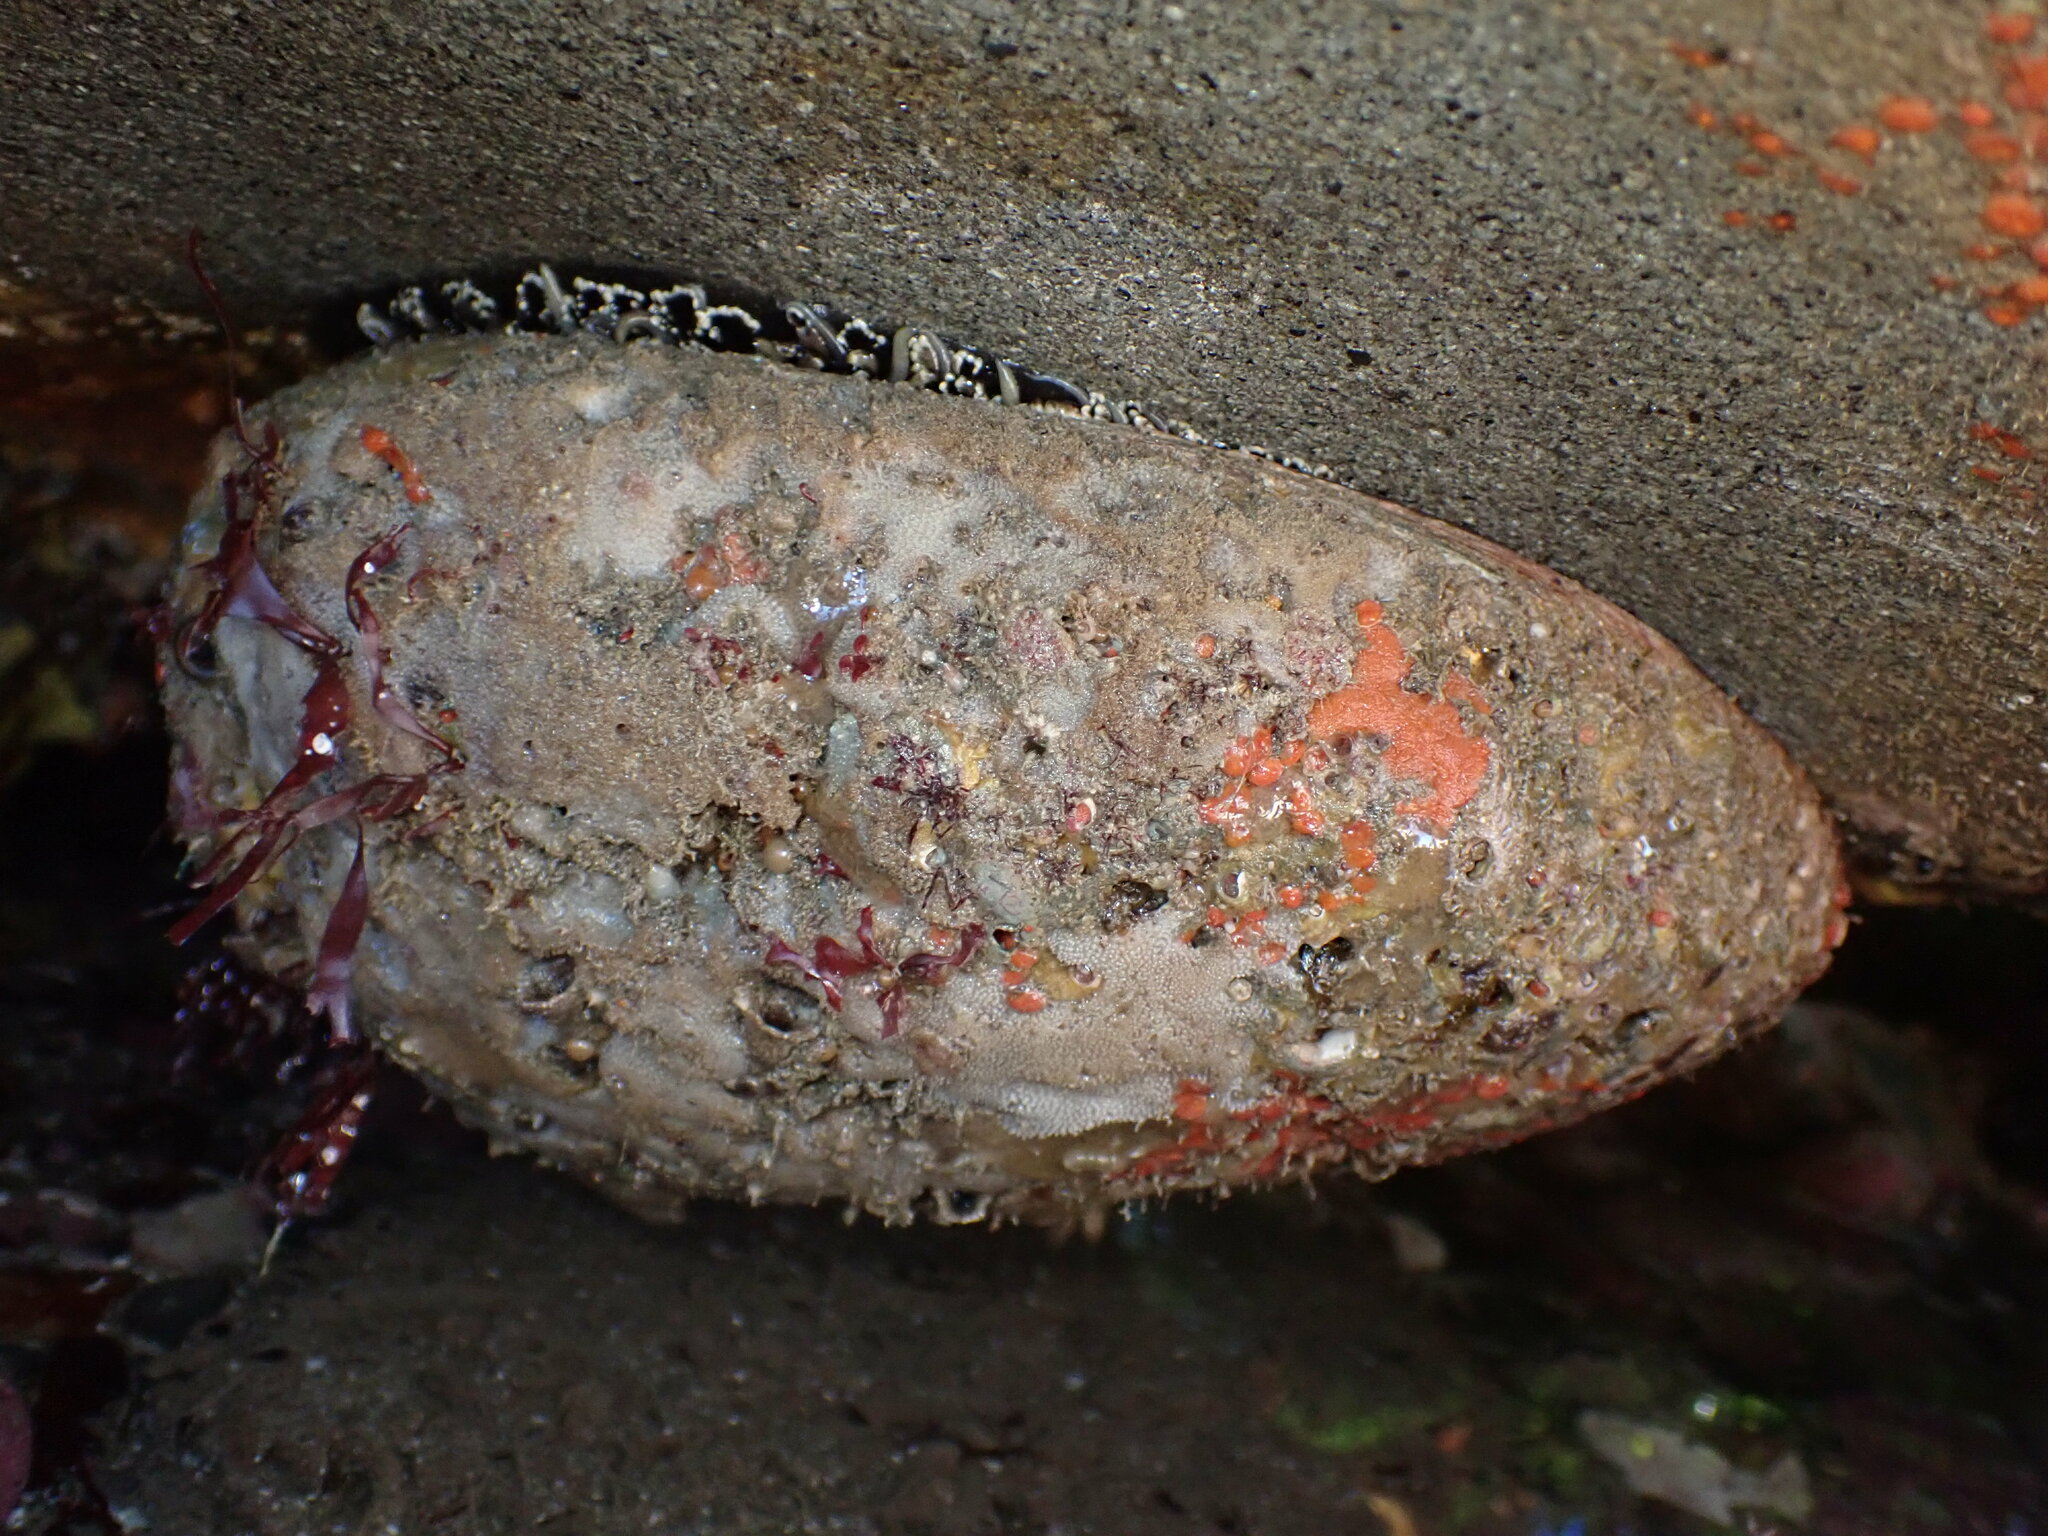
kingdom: Animalia
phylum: Mollusca
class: Gastropoda
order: Lepetellida
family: Haliotidae
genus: Haliotis
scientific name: Haliotis fulgens
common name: Green abalone
